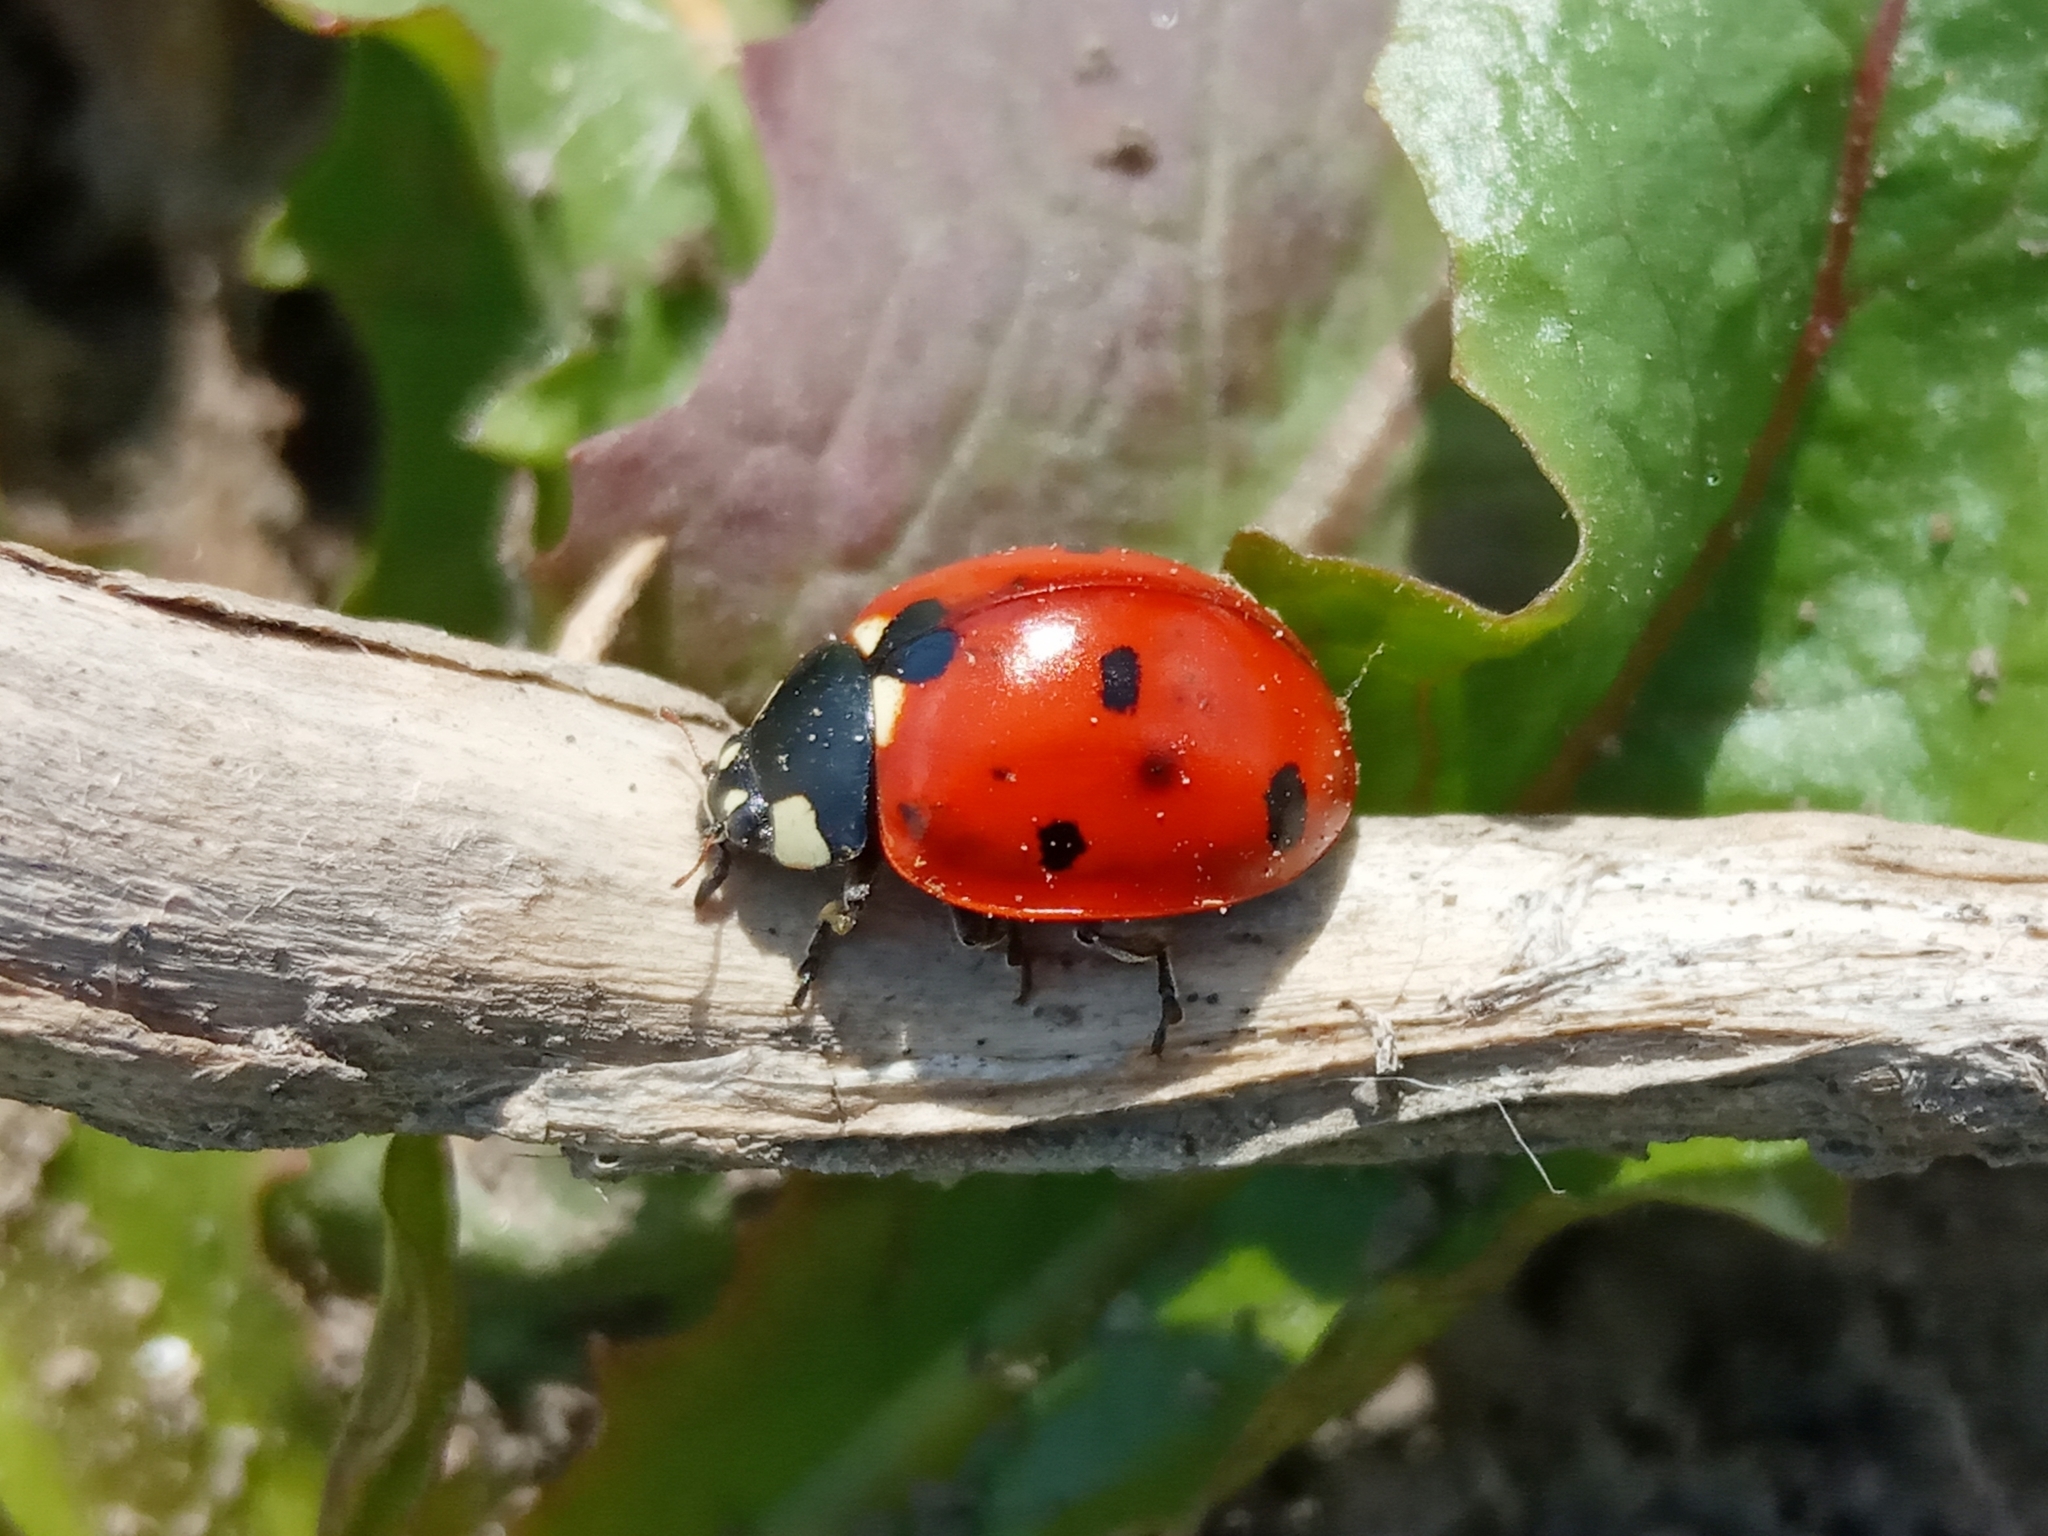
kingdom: Animalia
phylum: Arthropoda
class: Insecta
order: Coleoptera
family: Coccinellidae
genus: Coccinella
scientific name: Coccinella septempunctata
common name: Sevenspotted lady beetle
